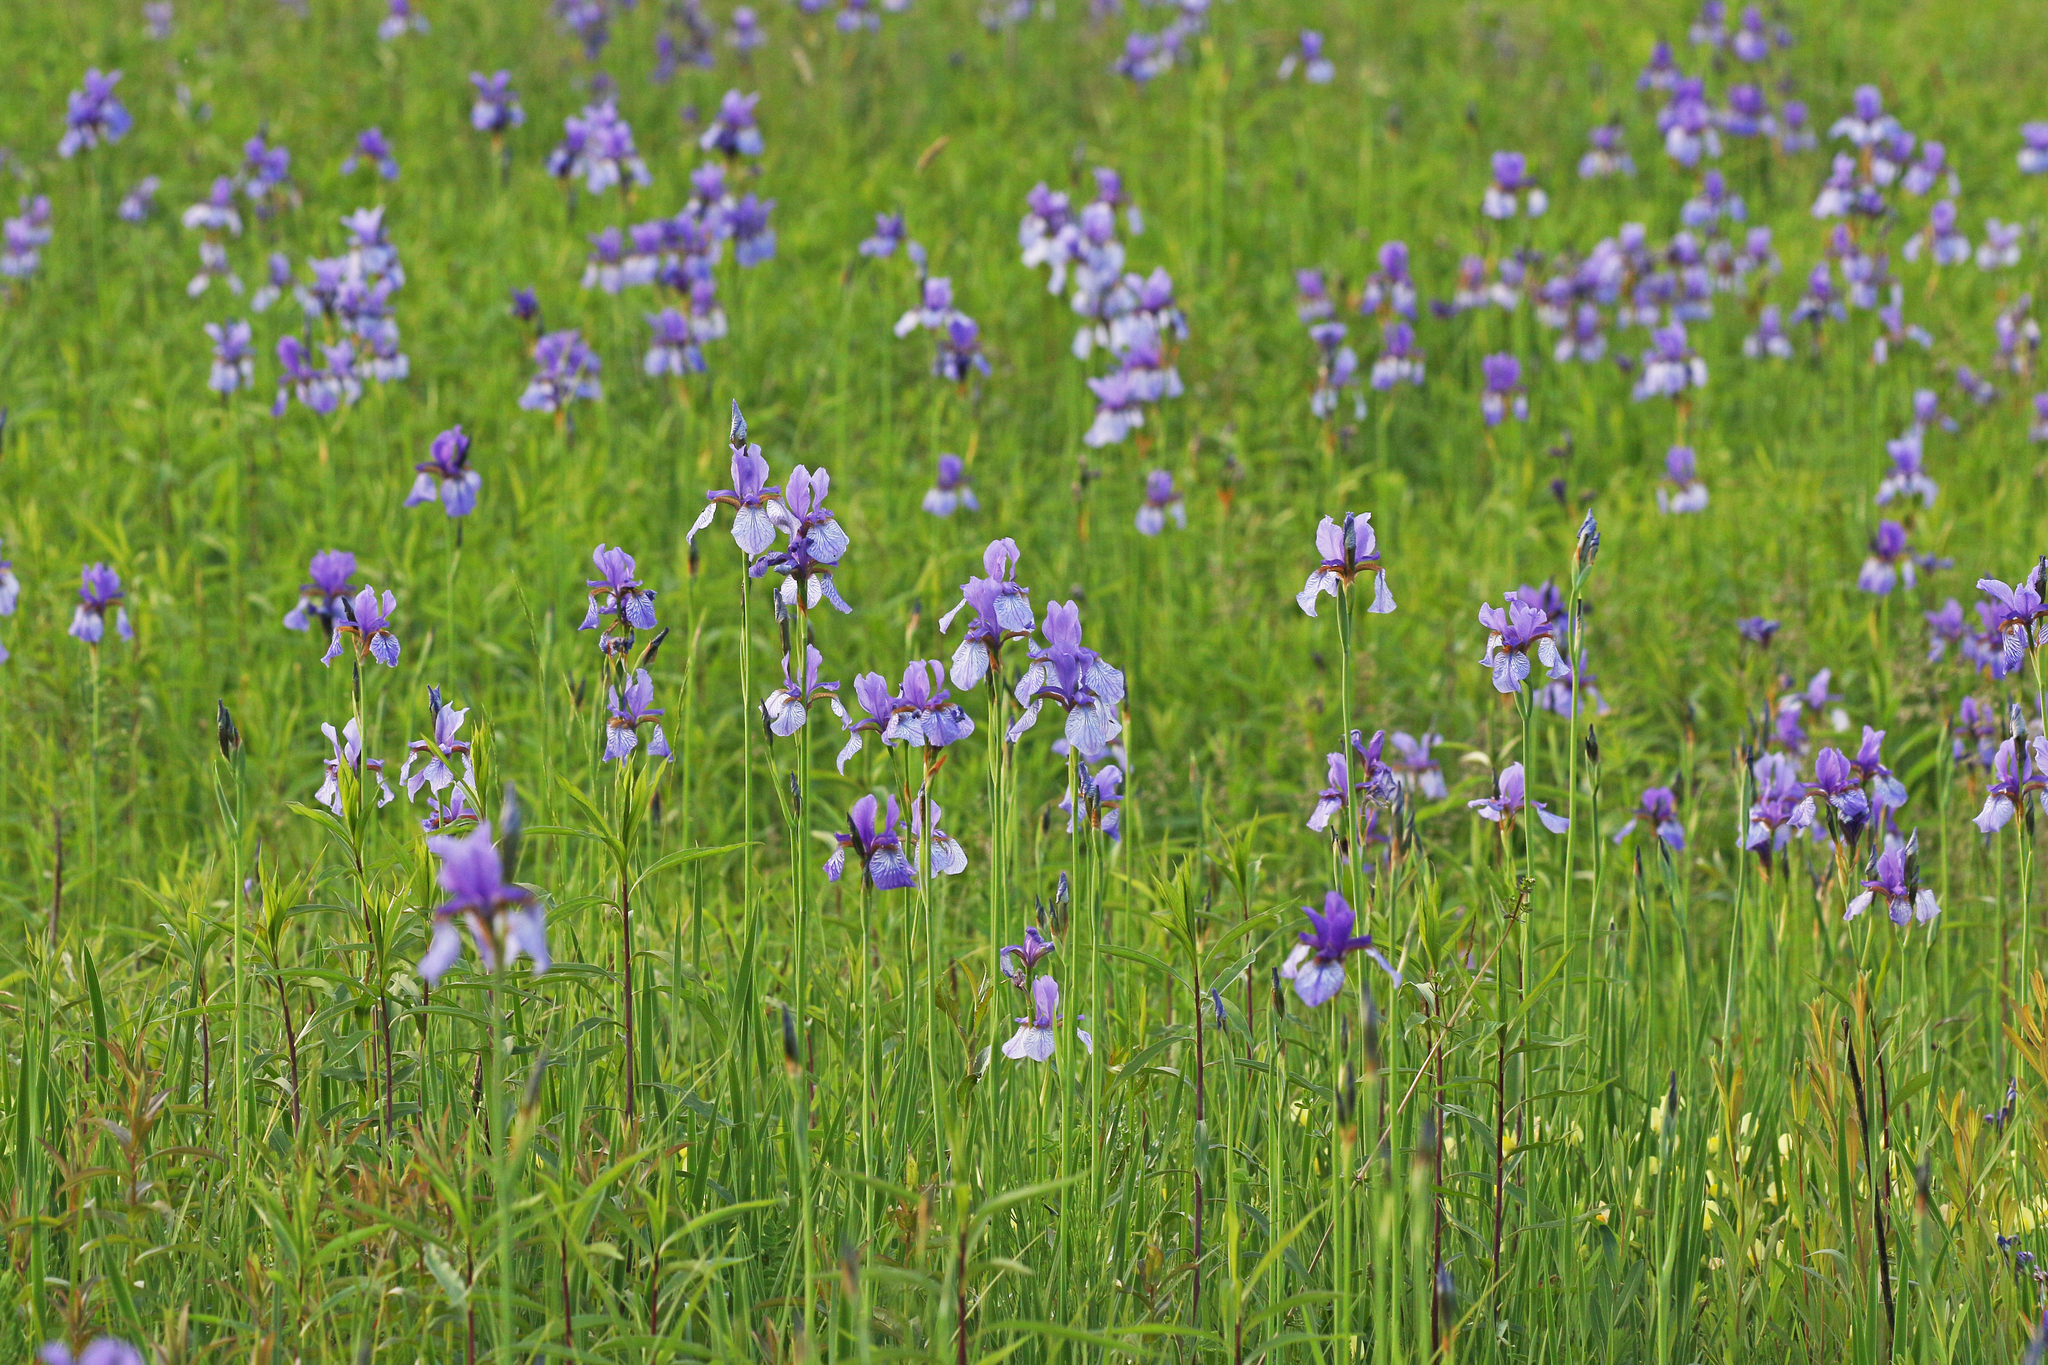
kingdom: Plantae
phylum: Tracheophyta
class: Liliopsida
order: Asparagales
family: Iridaceae
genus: Iris
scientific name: Iris sibirica
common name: Siberian iris
